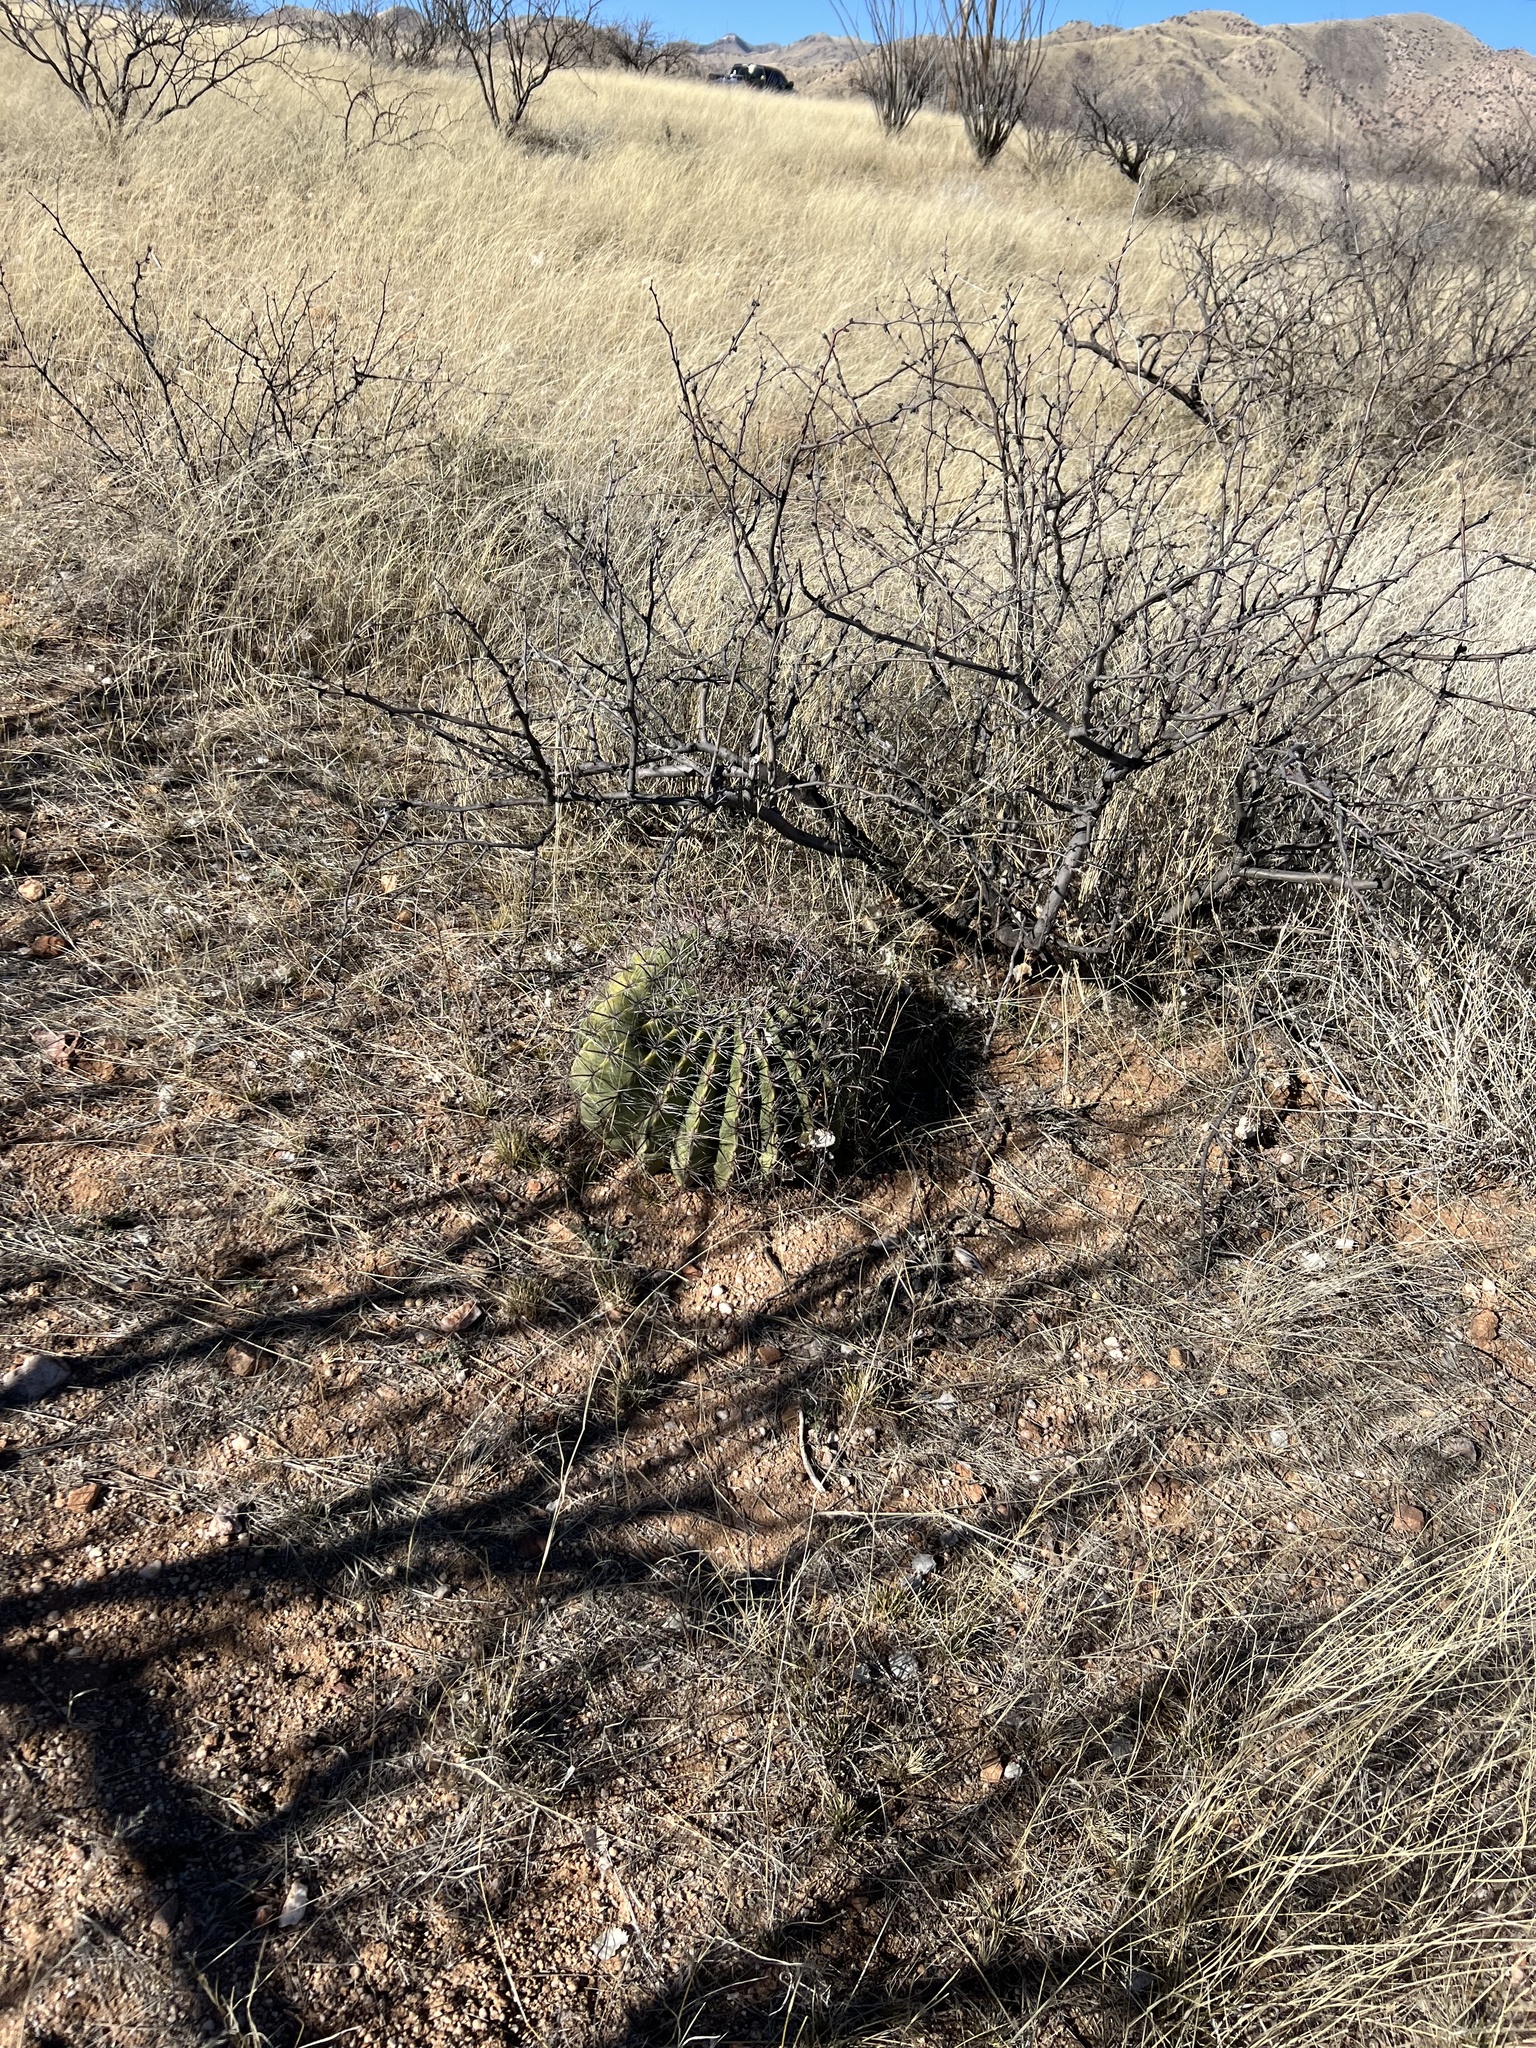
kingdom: Plantae
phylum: Tracheophyta
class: Magnoliopsida
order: Caryophyllales
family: Cactaceae
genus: Ferocactus
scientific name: Ferocactus wislizeni
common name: Candy barrel cactus
